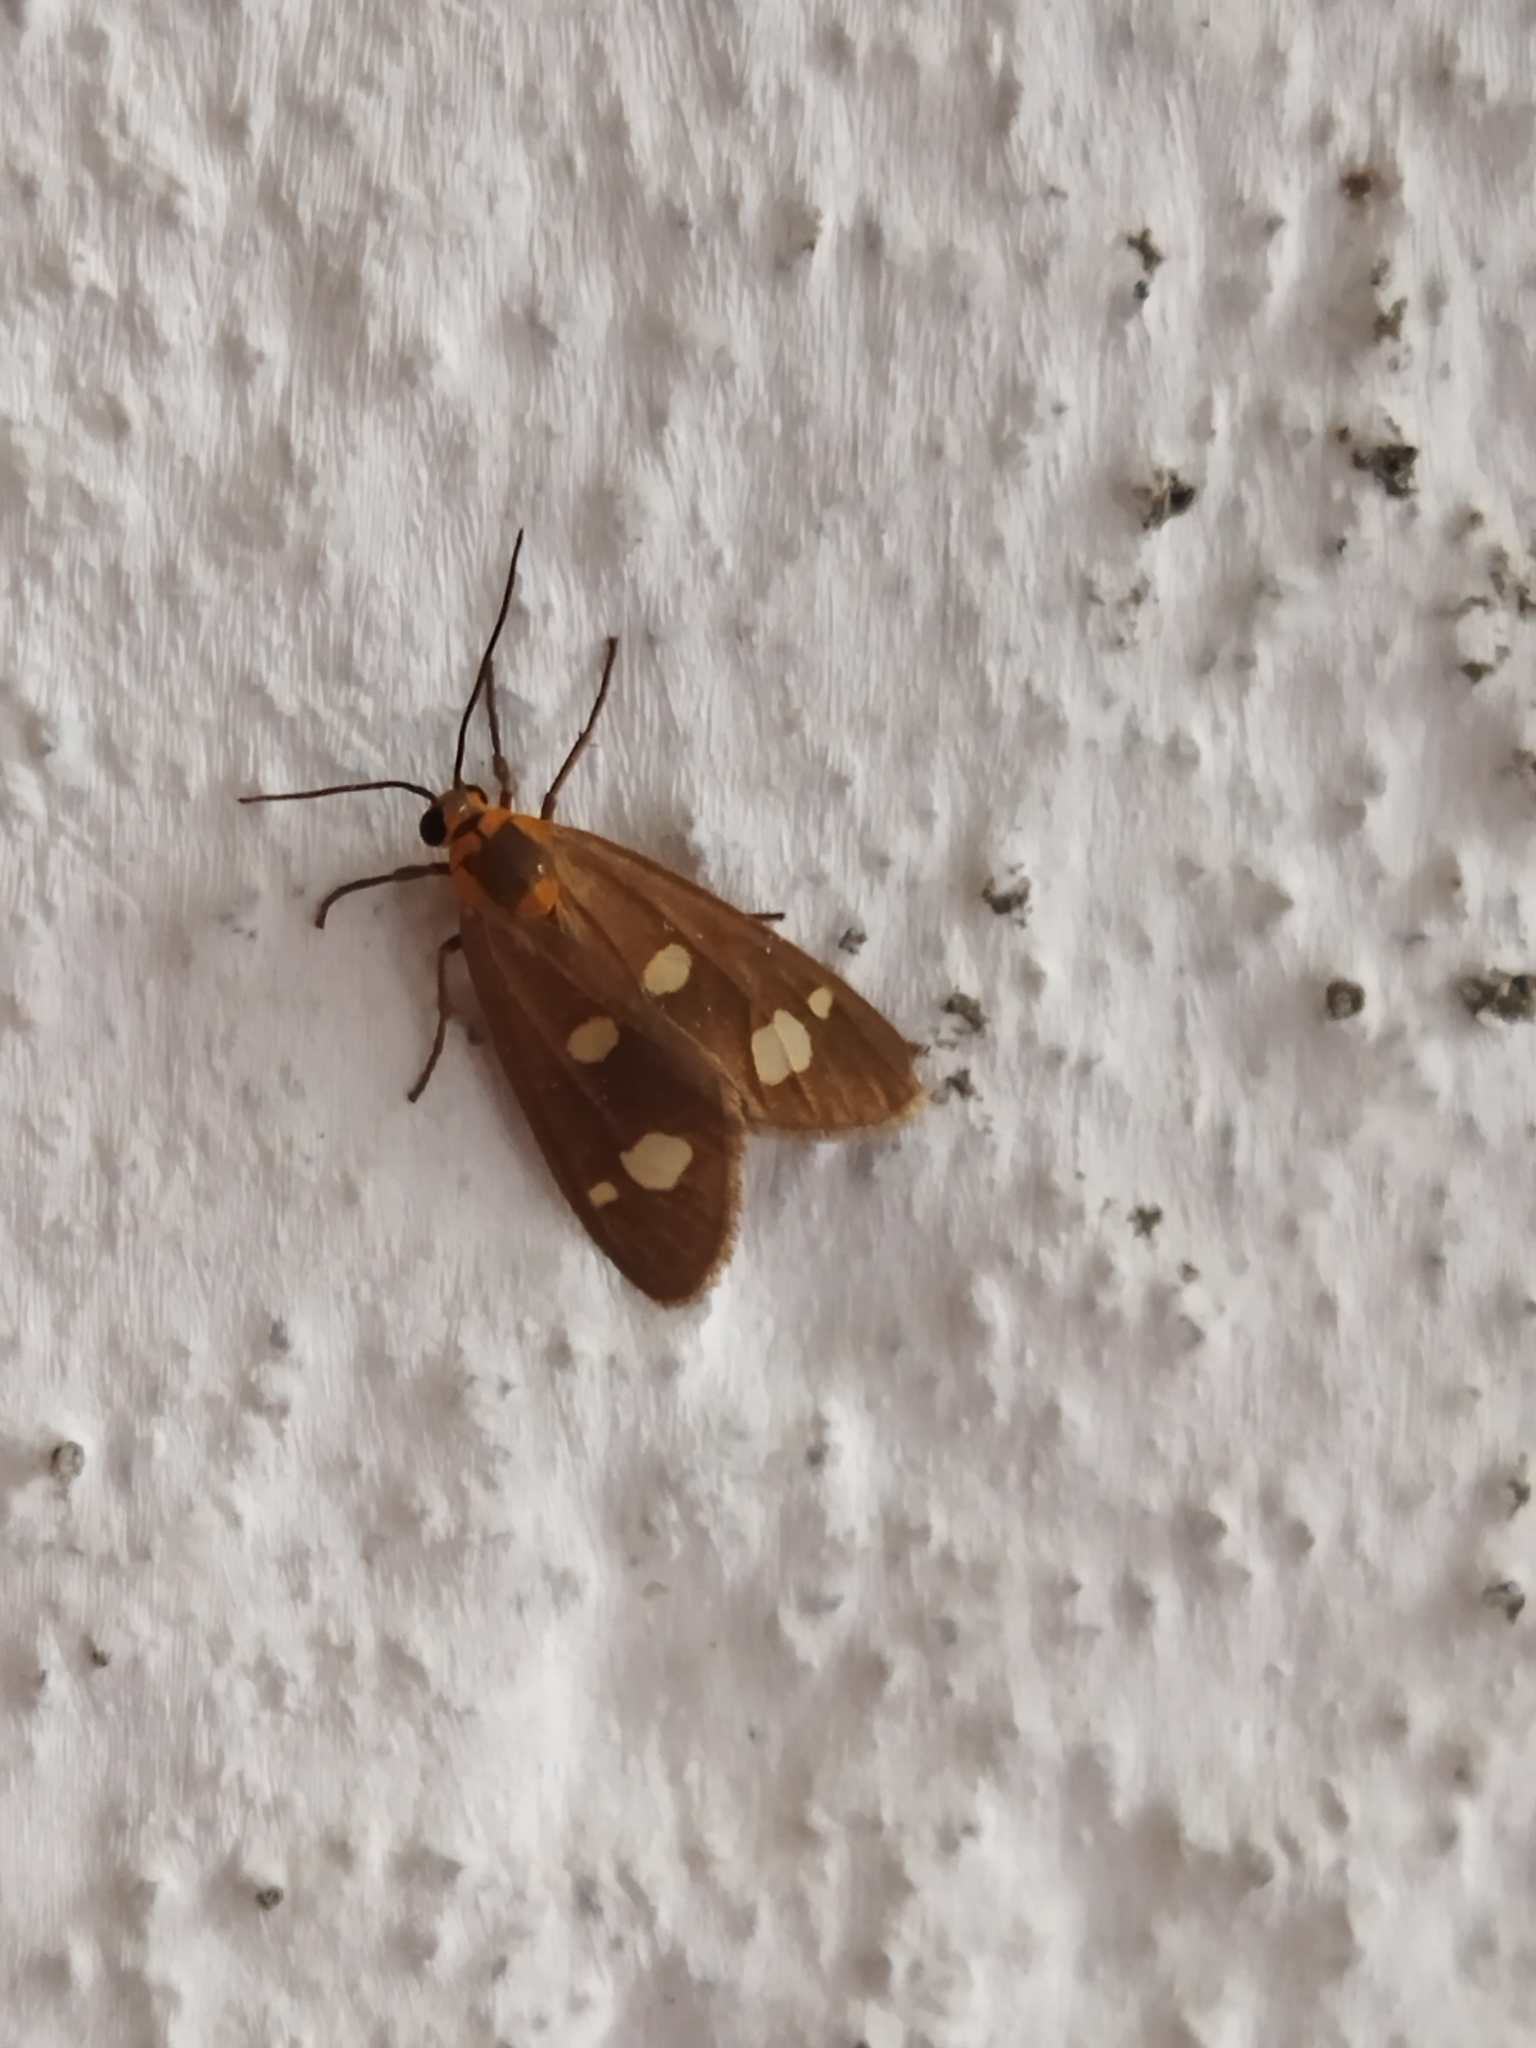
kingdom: Animalia
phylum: Arthropoda
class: Insecta
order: Lepidoptera
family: Erebidae
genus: Dysauxes
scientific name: Dysauxes punctata
